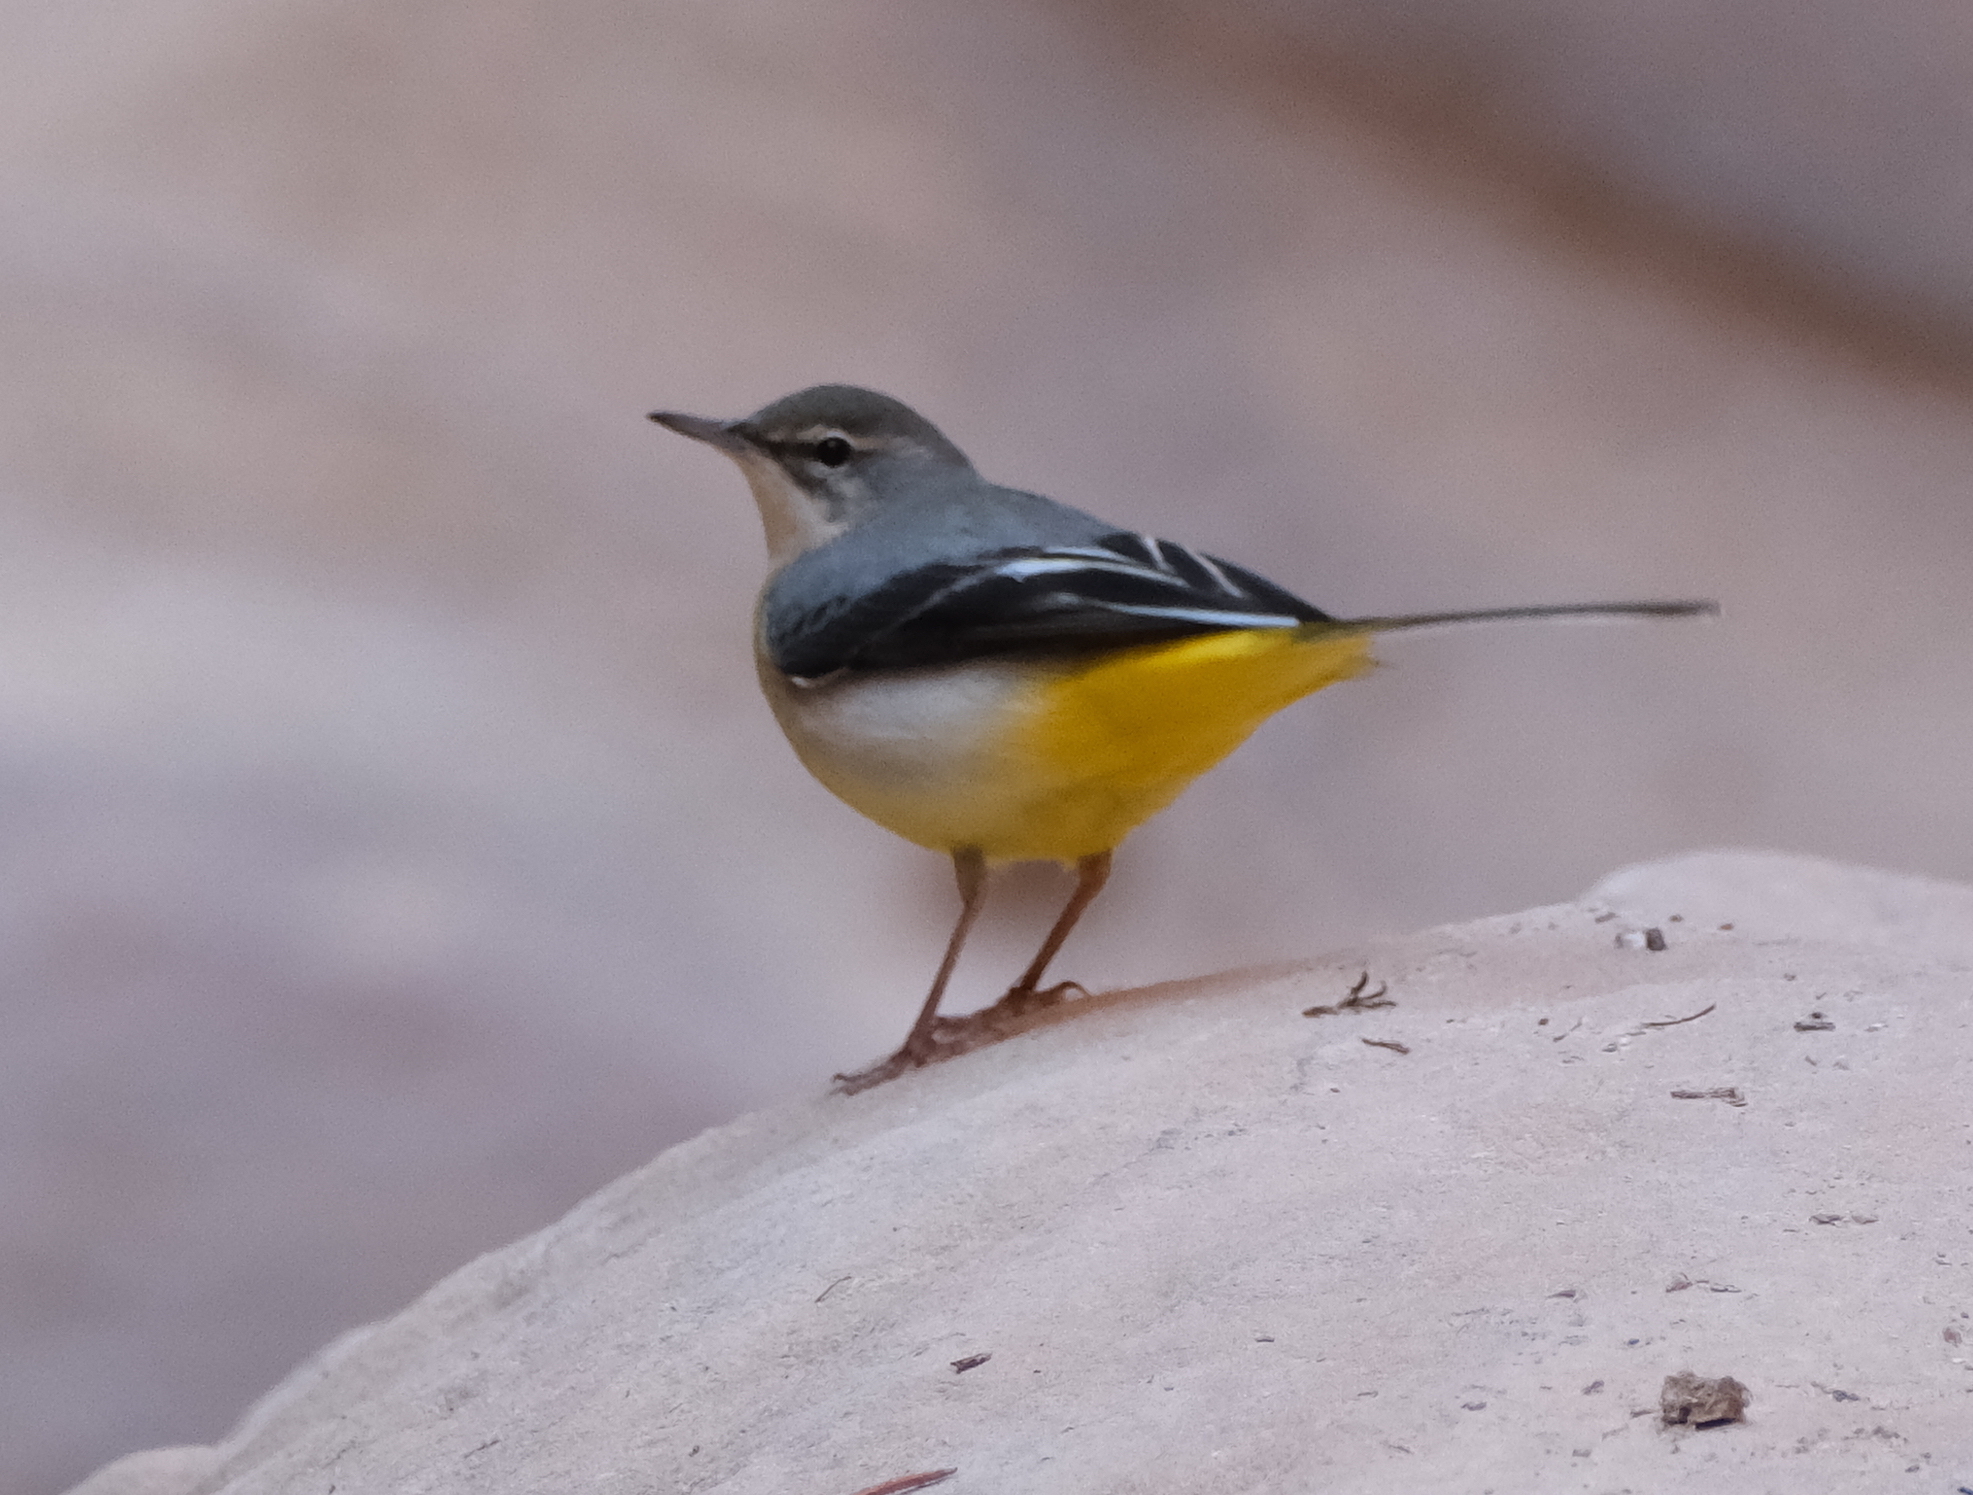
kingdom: Animalia
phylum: Chordata
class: Aves
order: Passeriformes
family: Motacillidae
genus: Motacilla
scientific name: Motacilla cinerea
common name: Grey wagtail
